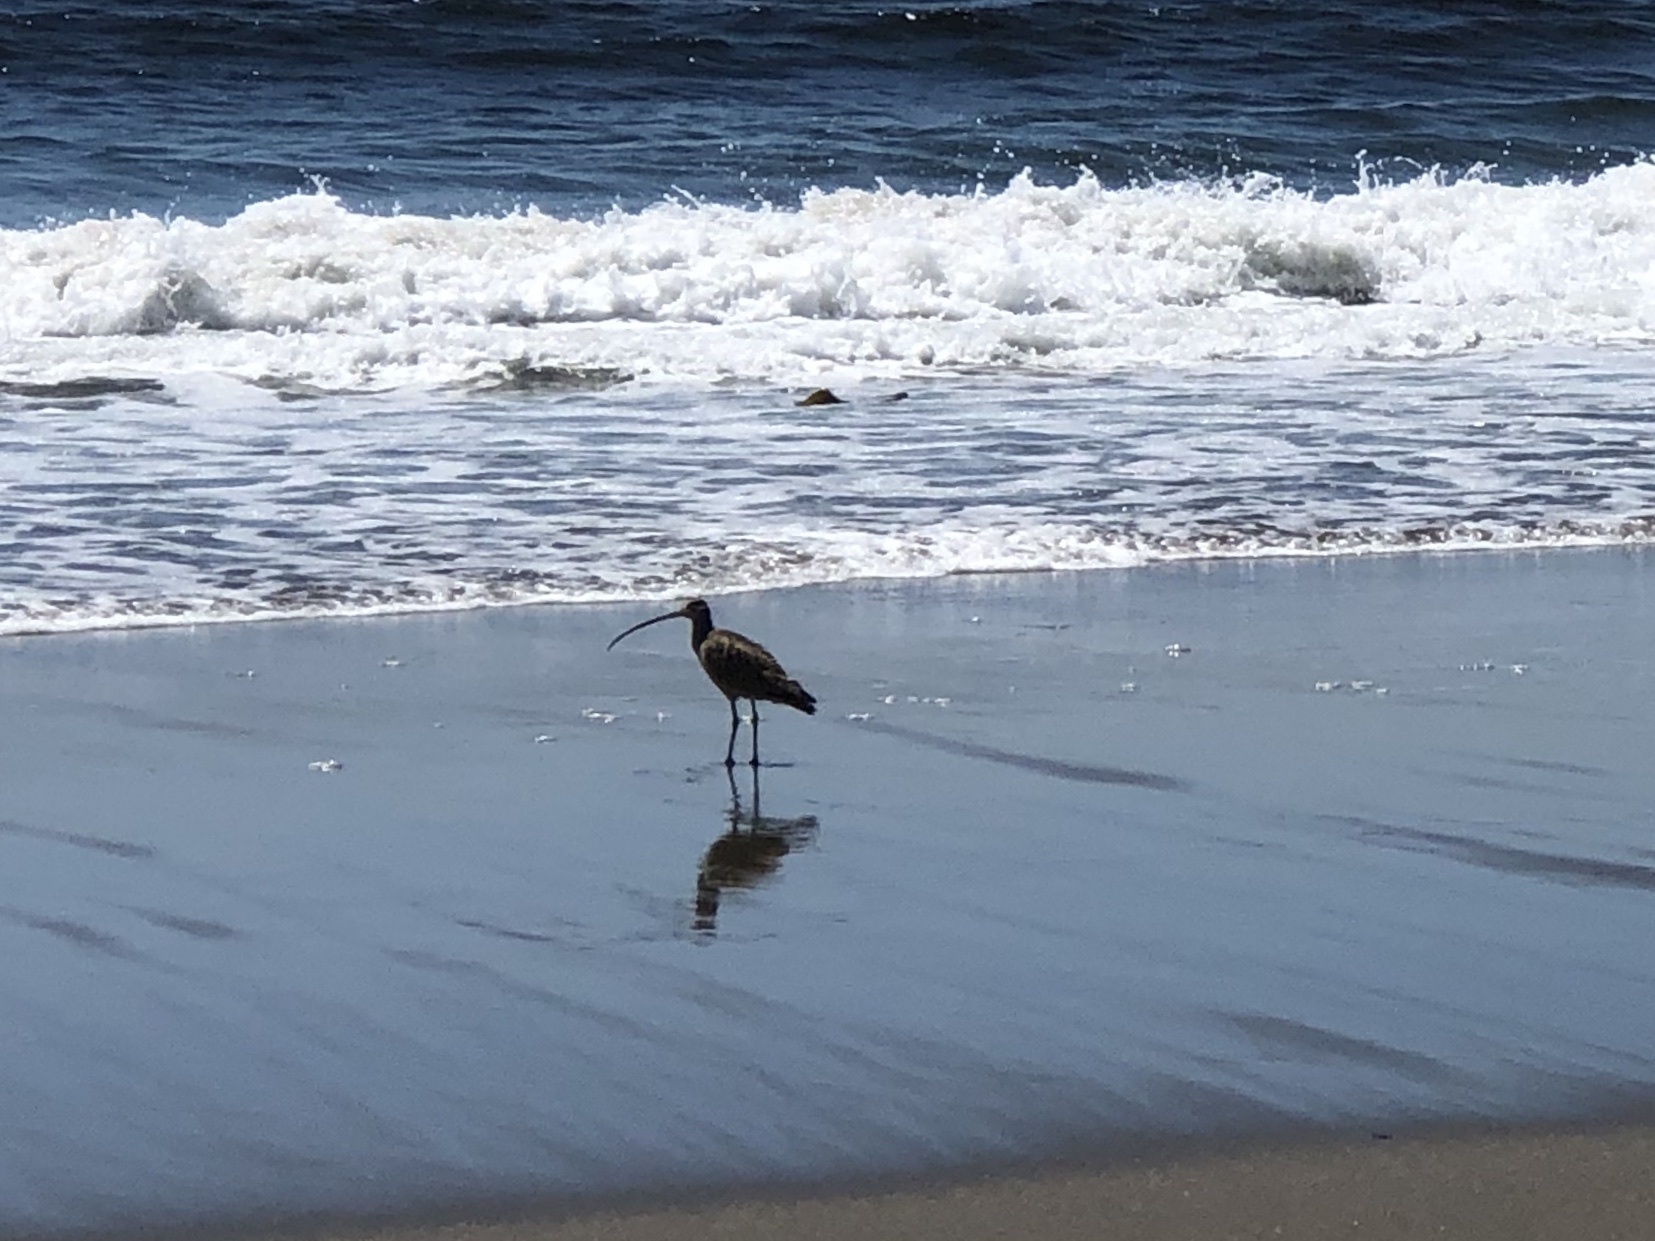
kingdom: Animalia
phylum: Chordata
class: Aves
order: Charadriiformes
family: Scolopacidae
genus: Numenius
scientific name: Numenius americanus
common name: Long-billed curlew
